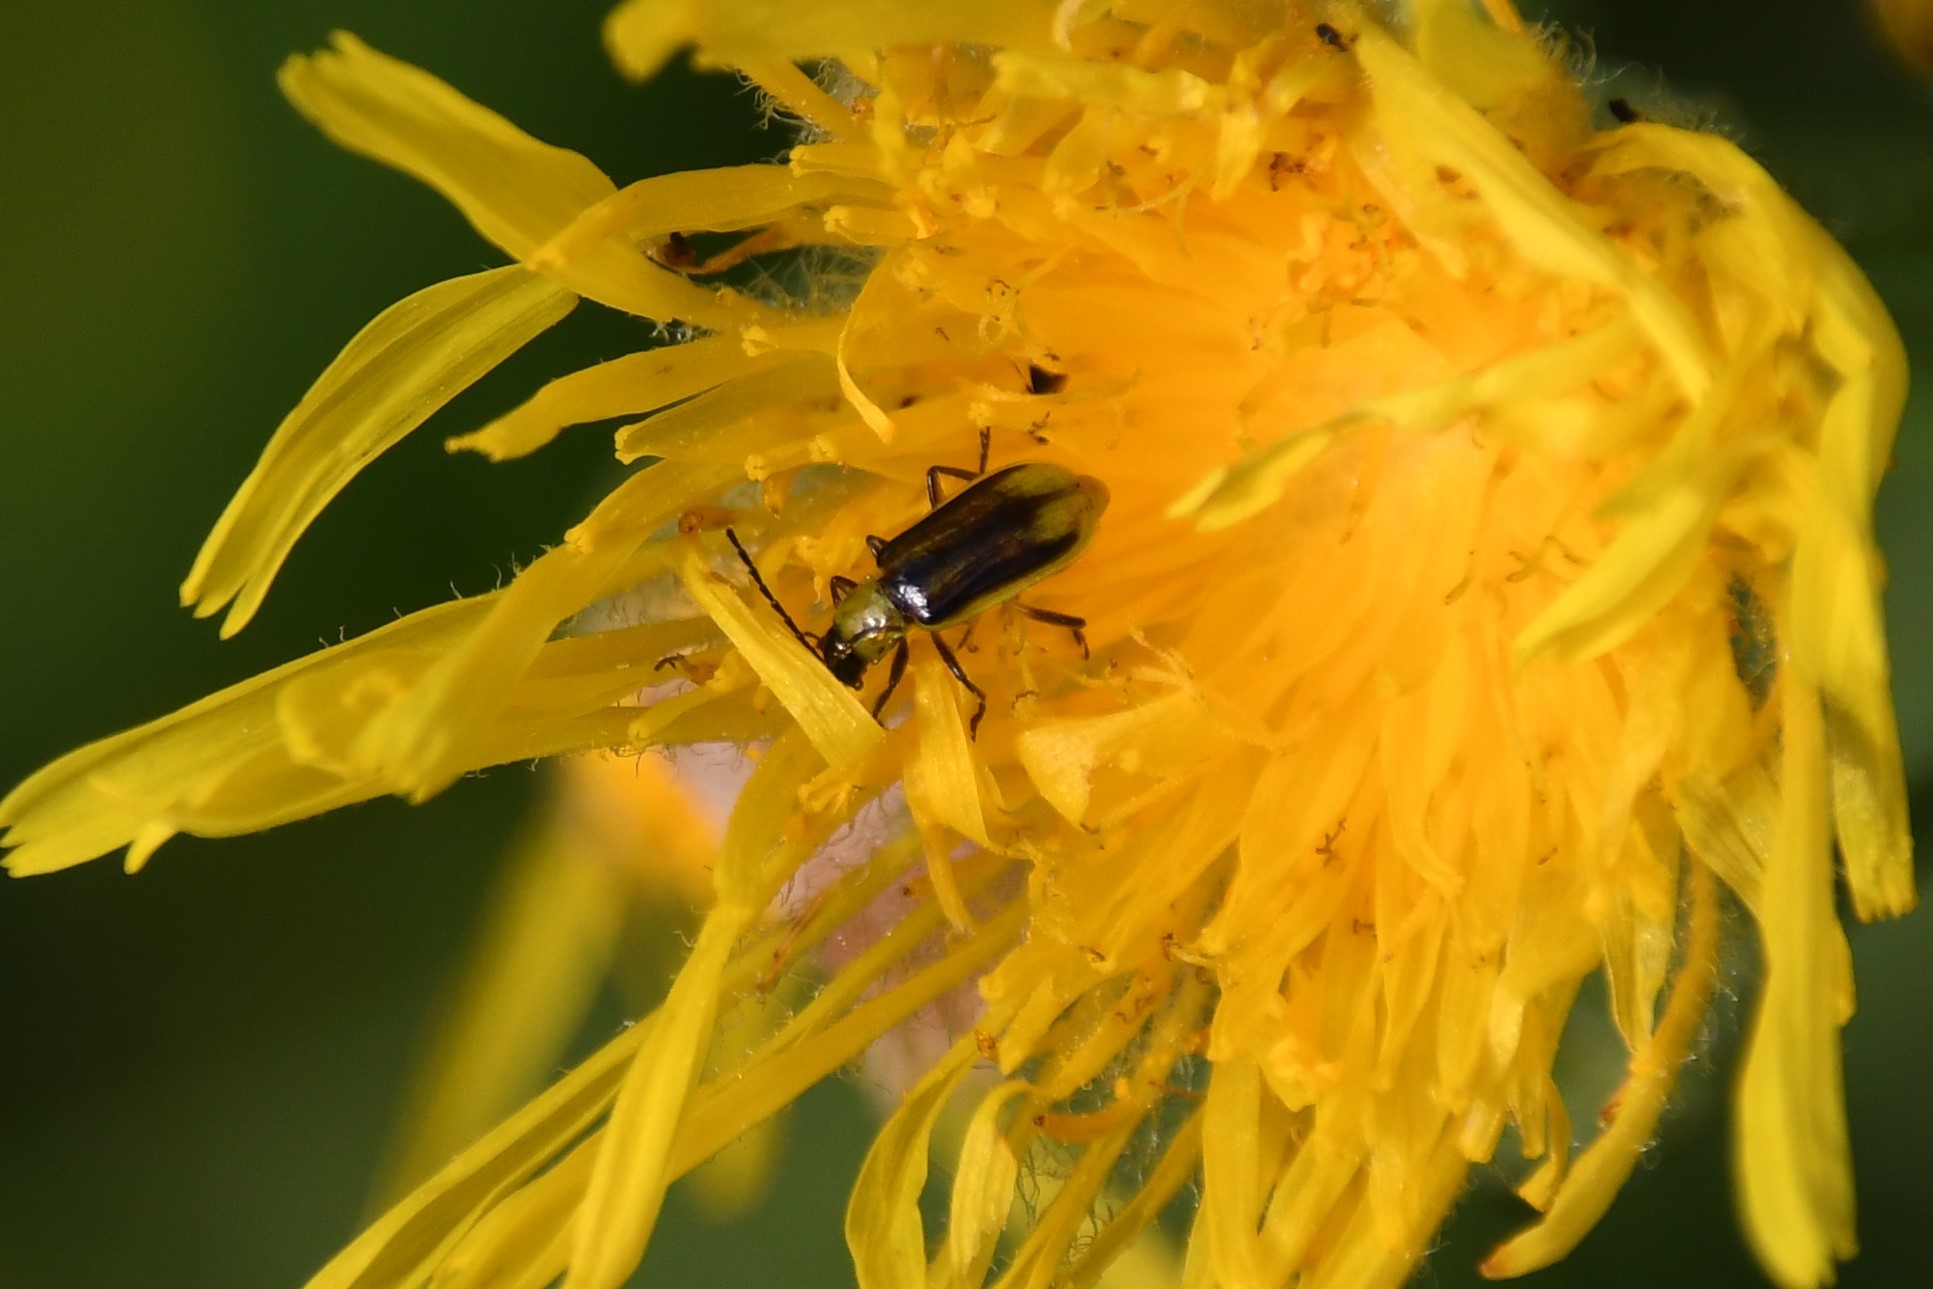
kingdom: Animalia
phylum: Arthropoda
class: Insecta
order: Coleoptera
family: Chrysomelidae
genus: Diabrotica
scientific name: Diabrotica virgifera
